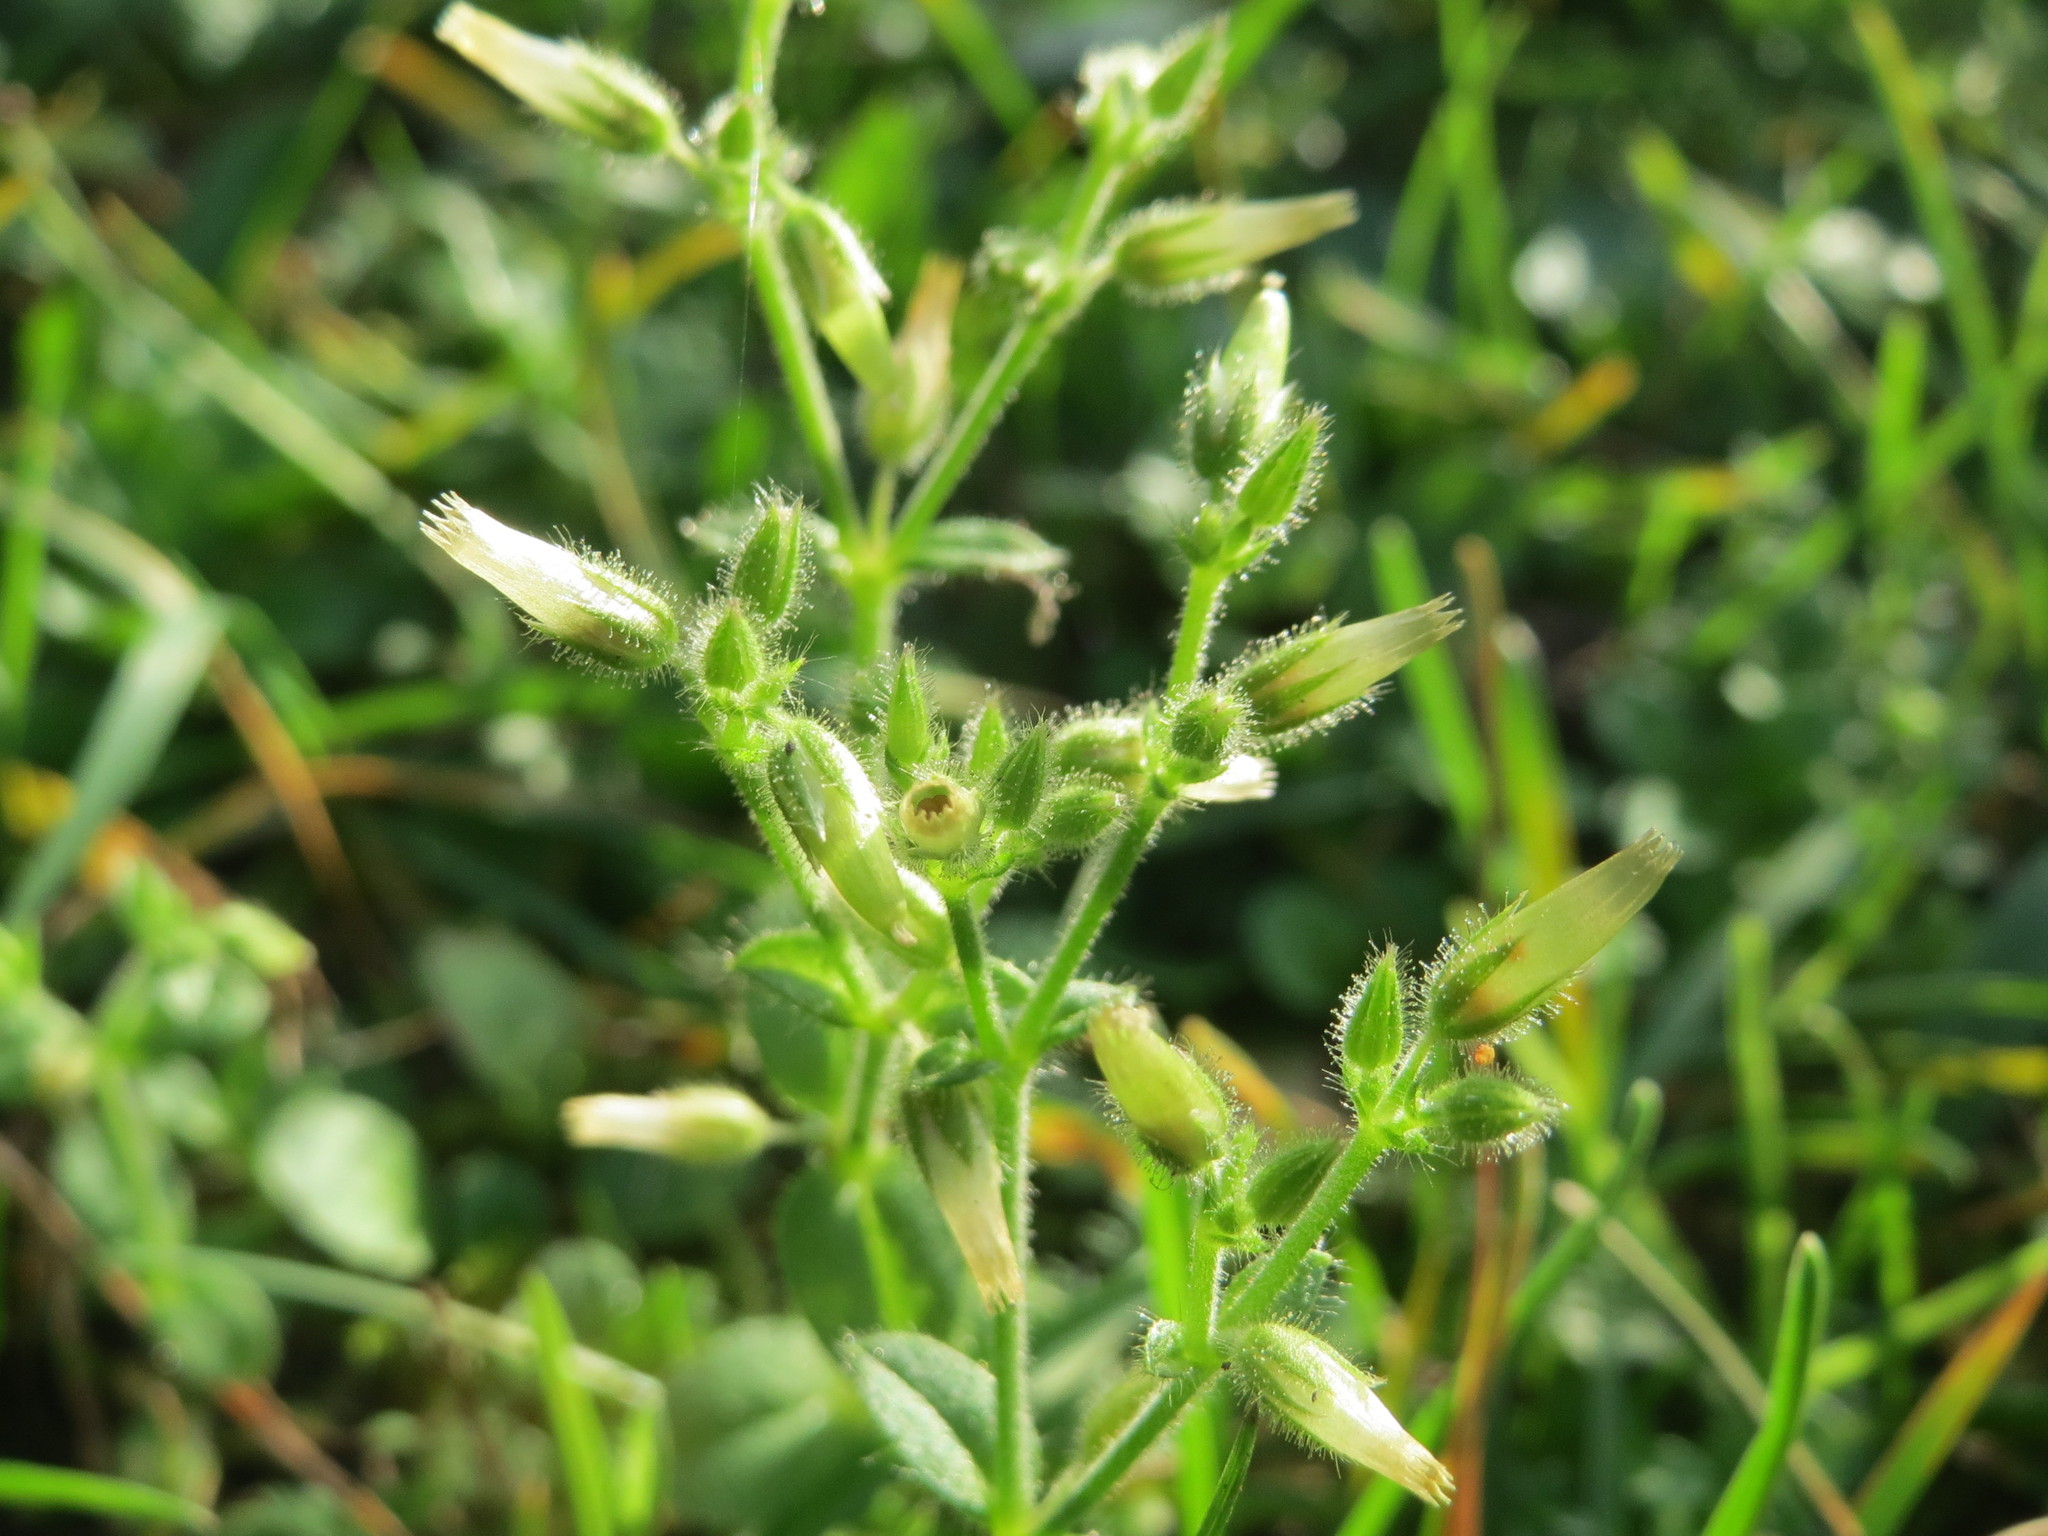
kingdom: Plantae
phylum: Tracheophyta
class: Magnoliopsida
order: Caryophyllales
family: Caryophyllaceae
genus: Cerastium
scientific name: Cerastium glomeratum
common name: Sticky chickweed
